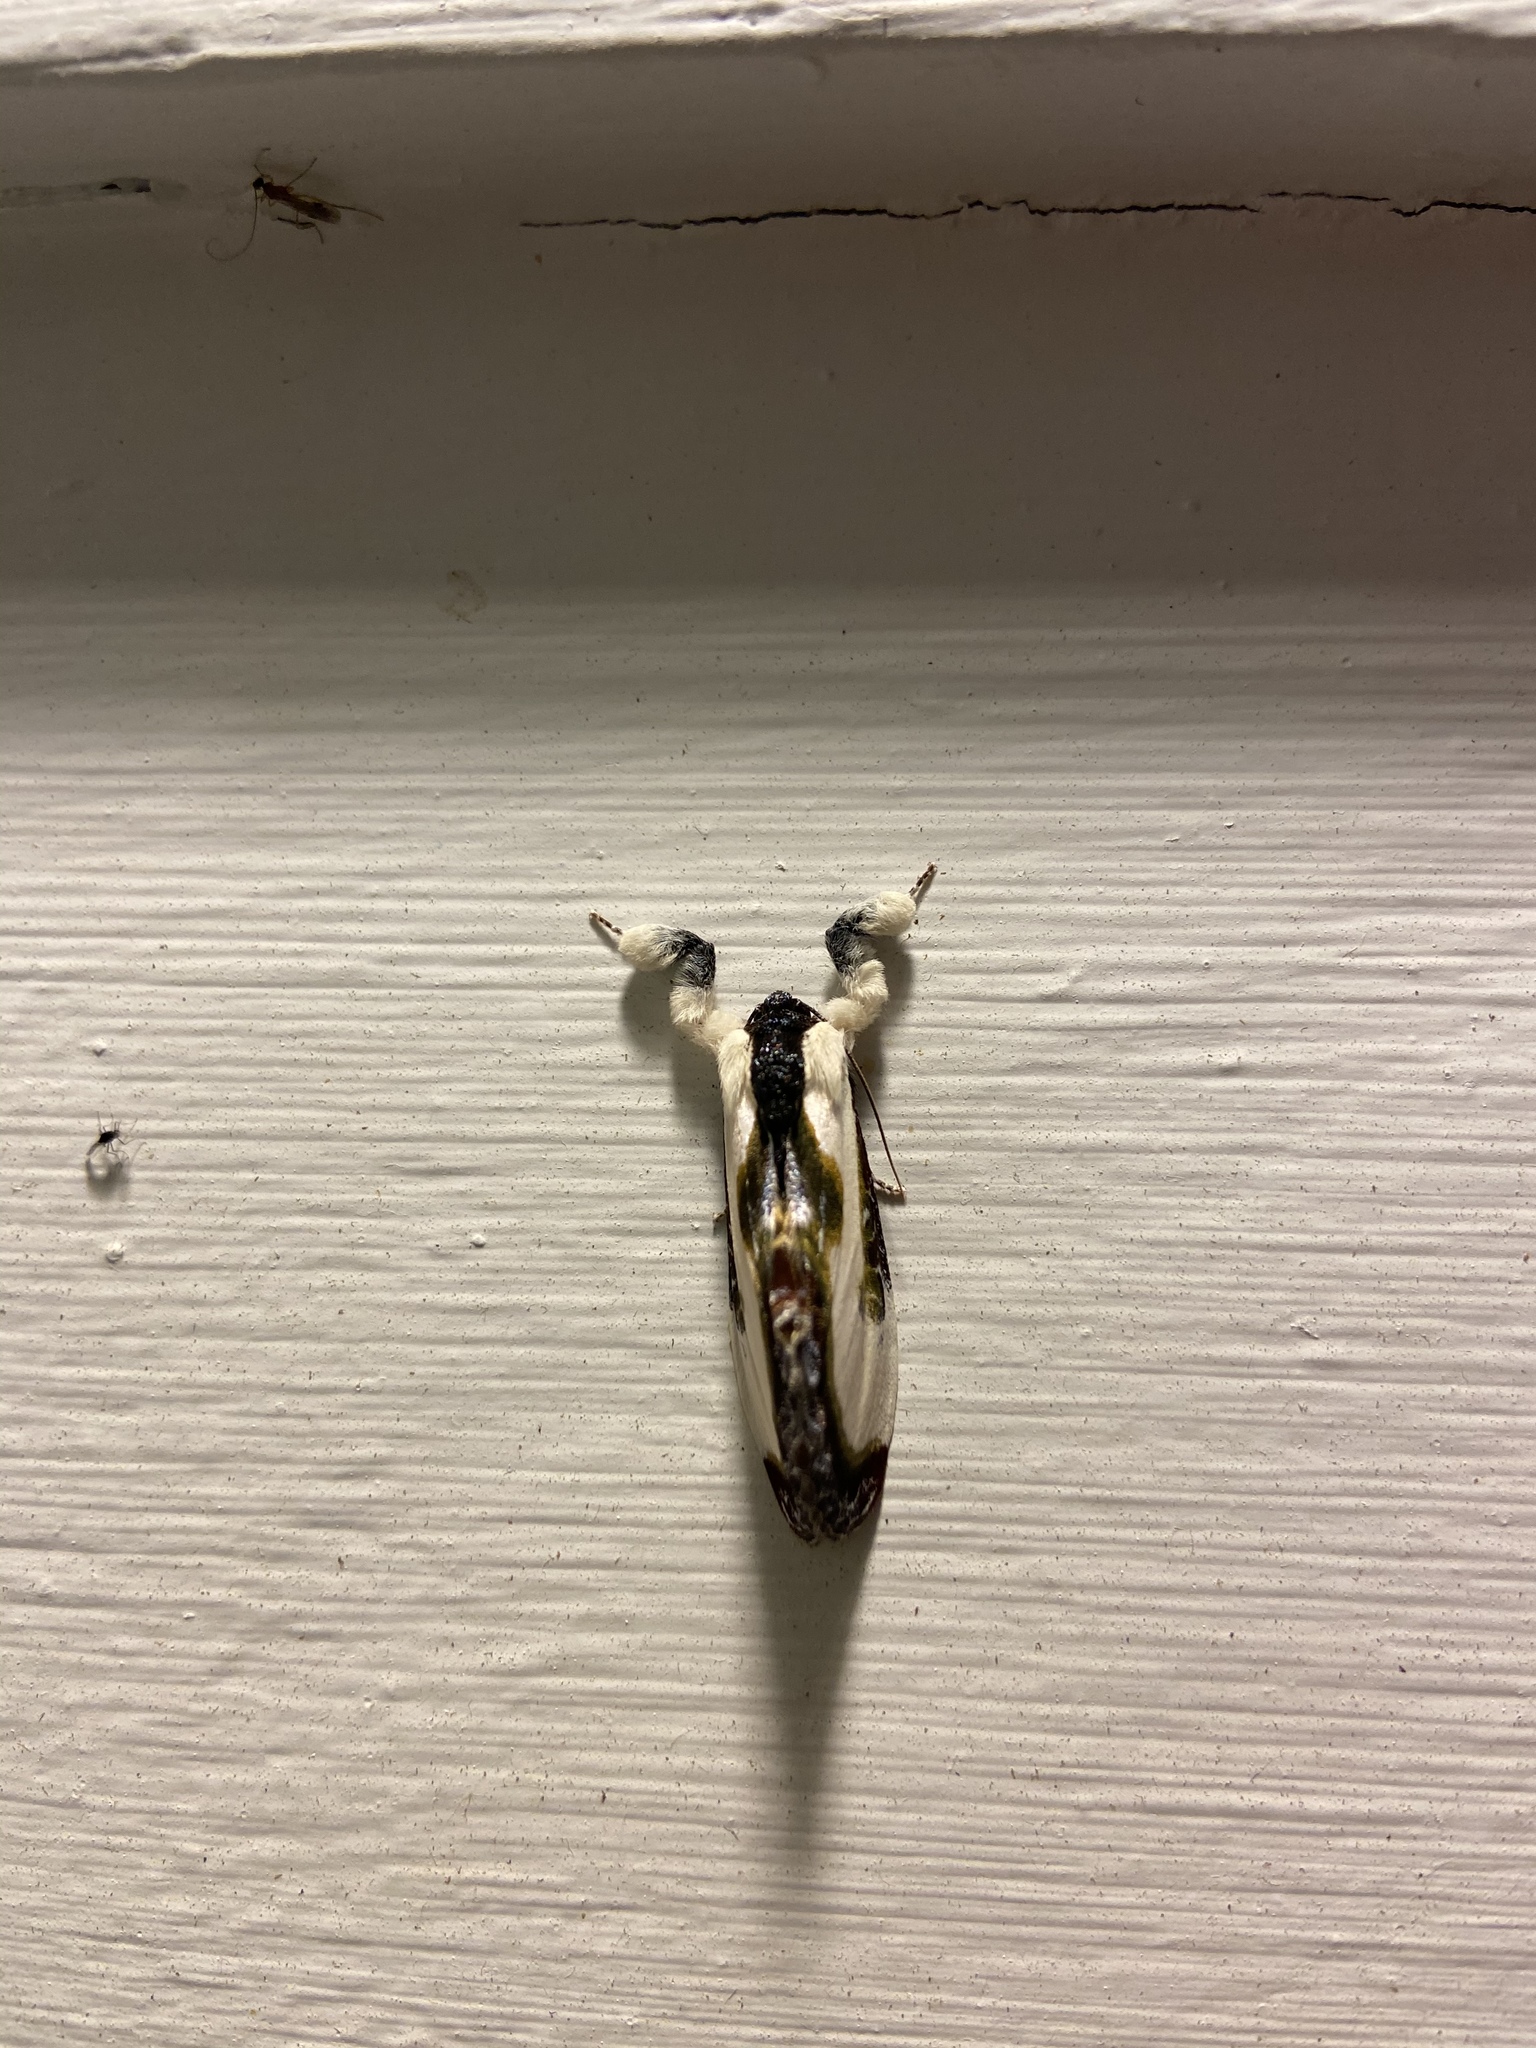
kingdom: Animalia
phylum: Arthropoda
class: Insecta
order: Lepidoptera
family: Noctuidae
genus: Eudryas
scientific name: Eudryas grata
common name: Beautiful wood-nymph
